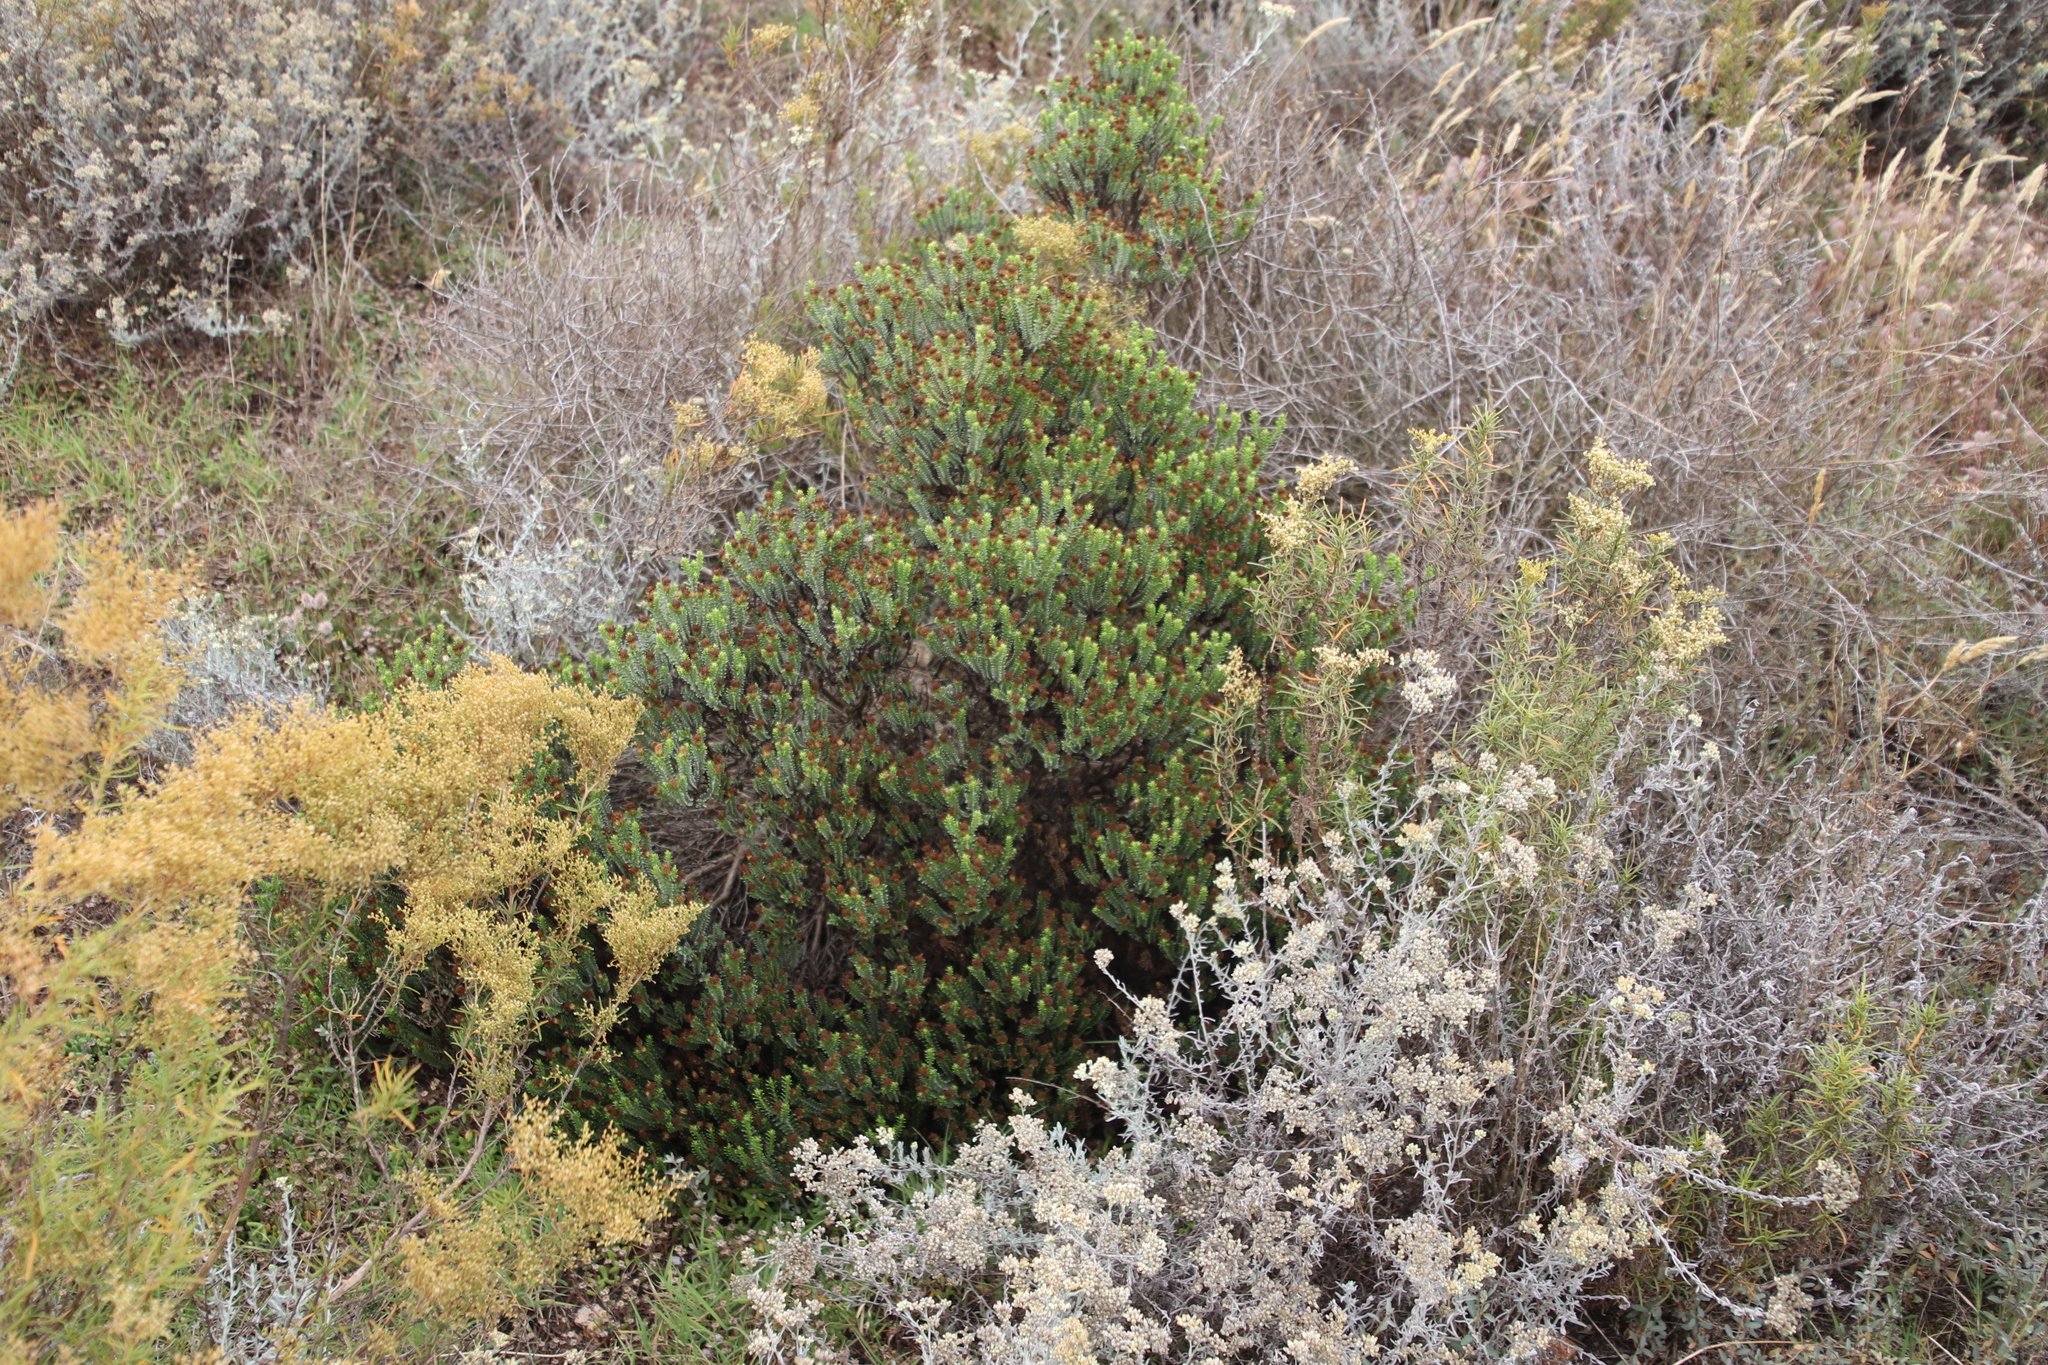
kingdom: Plantae
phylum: Tracheophyta
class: Magnoliopsida
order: Asterales
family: Asteraceae
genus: Oedera
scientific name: Oedera uniflora
